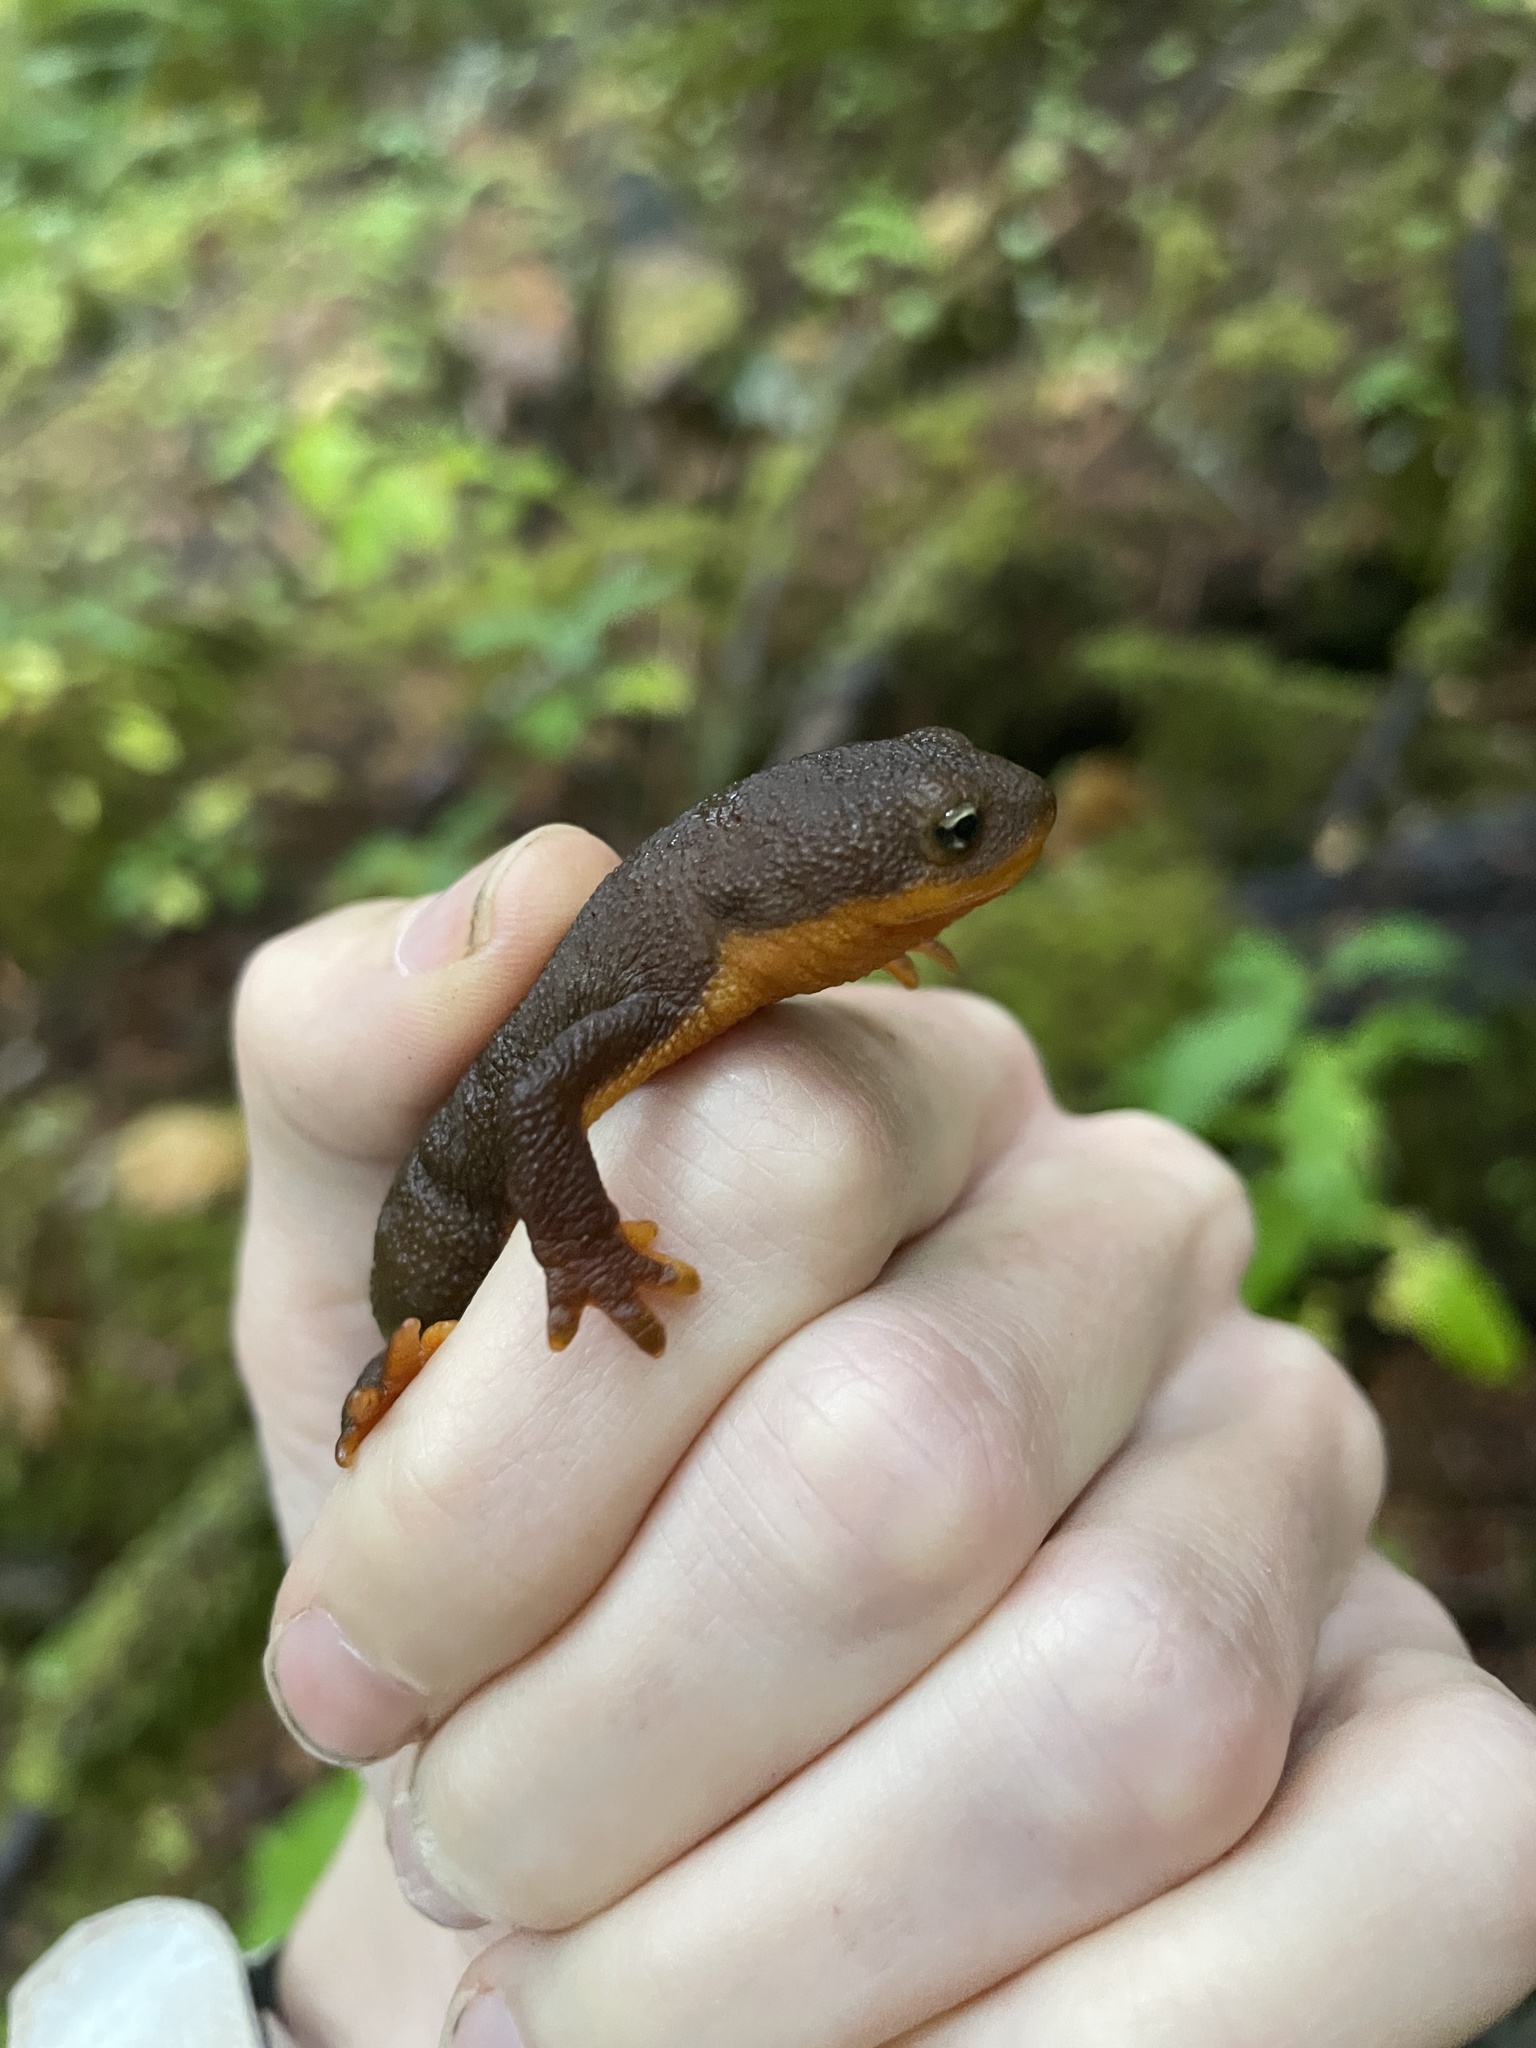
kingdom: Animalia
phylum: Chordata
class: Amphibia
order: Caudata
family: Salamandridae
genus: Taricha
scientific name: Taricha granulosa
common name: Roughskin newt
